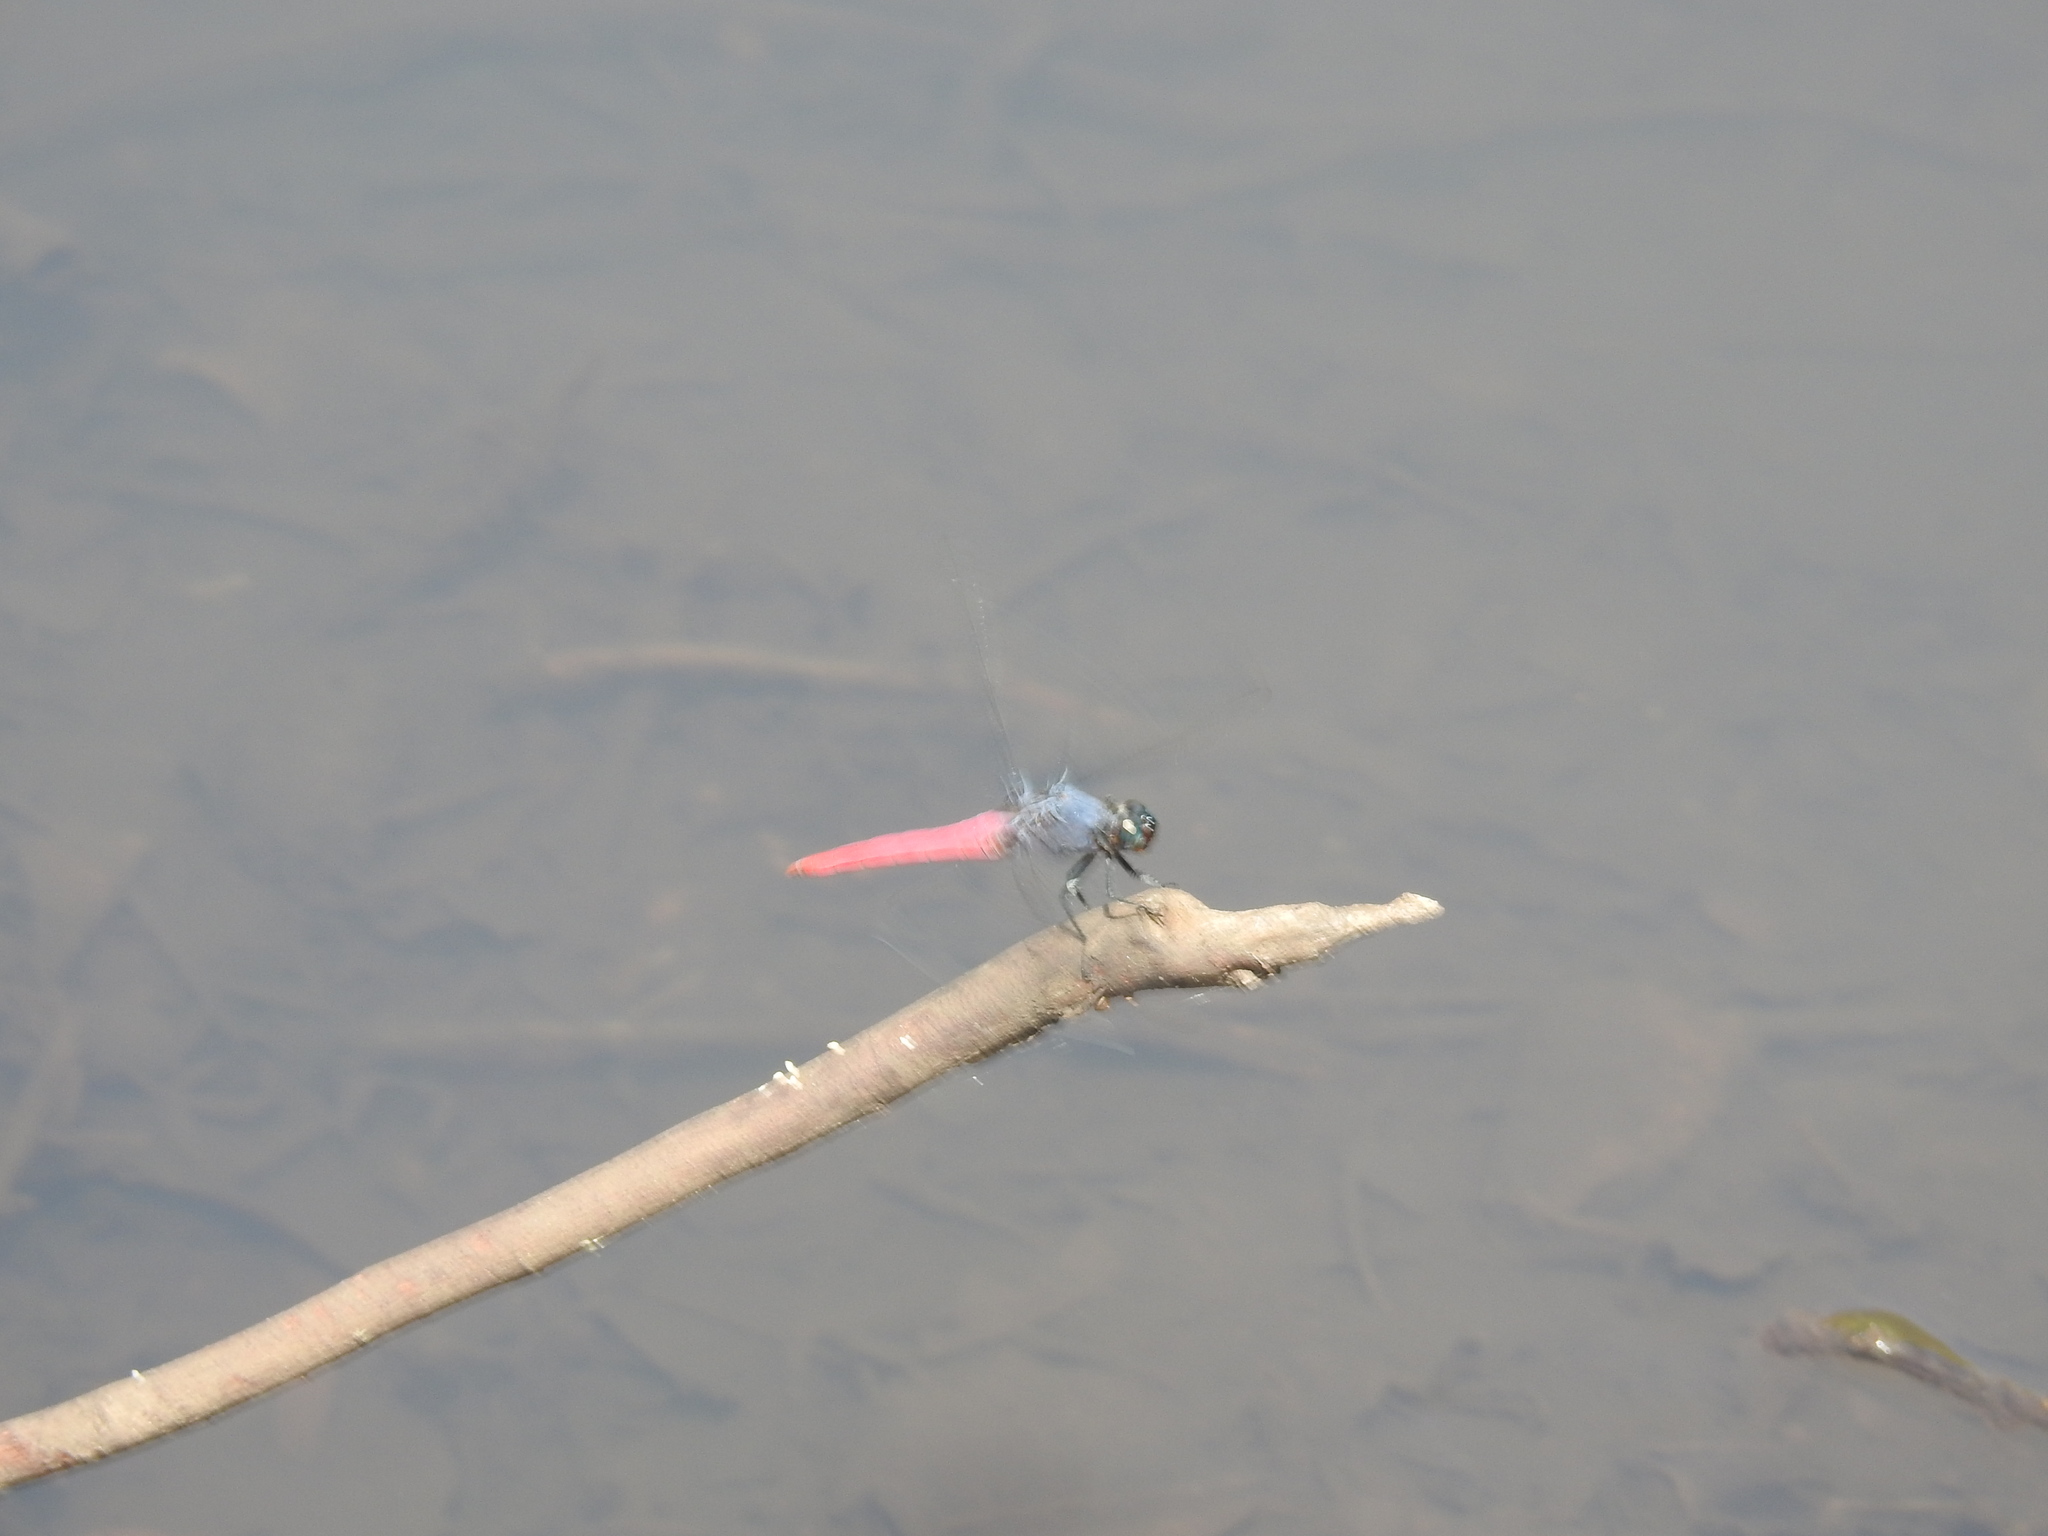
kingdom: Animalia
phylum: Arthropoda
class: Insecta
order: Odonata
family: Libellulidae
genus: Orthetrum
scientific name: Orthetrum pruinosum
